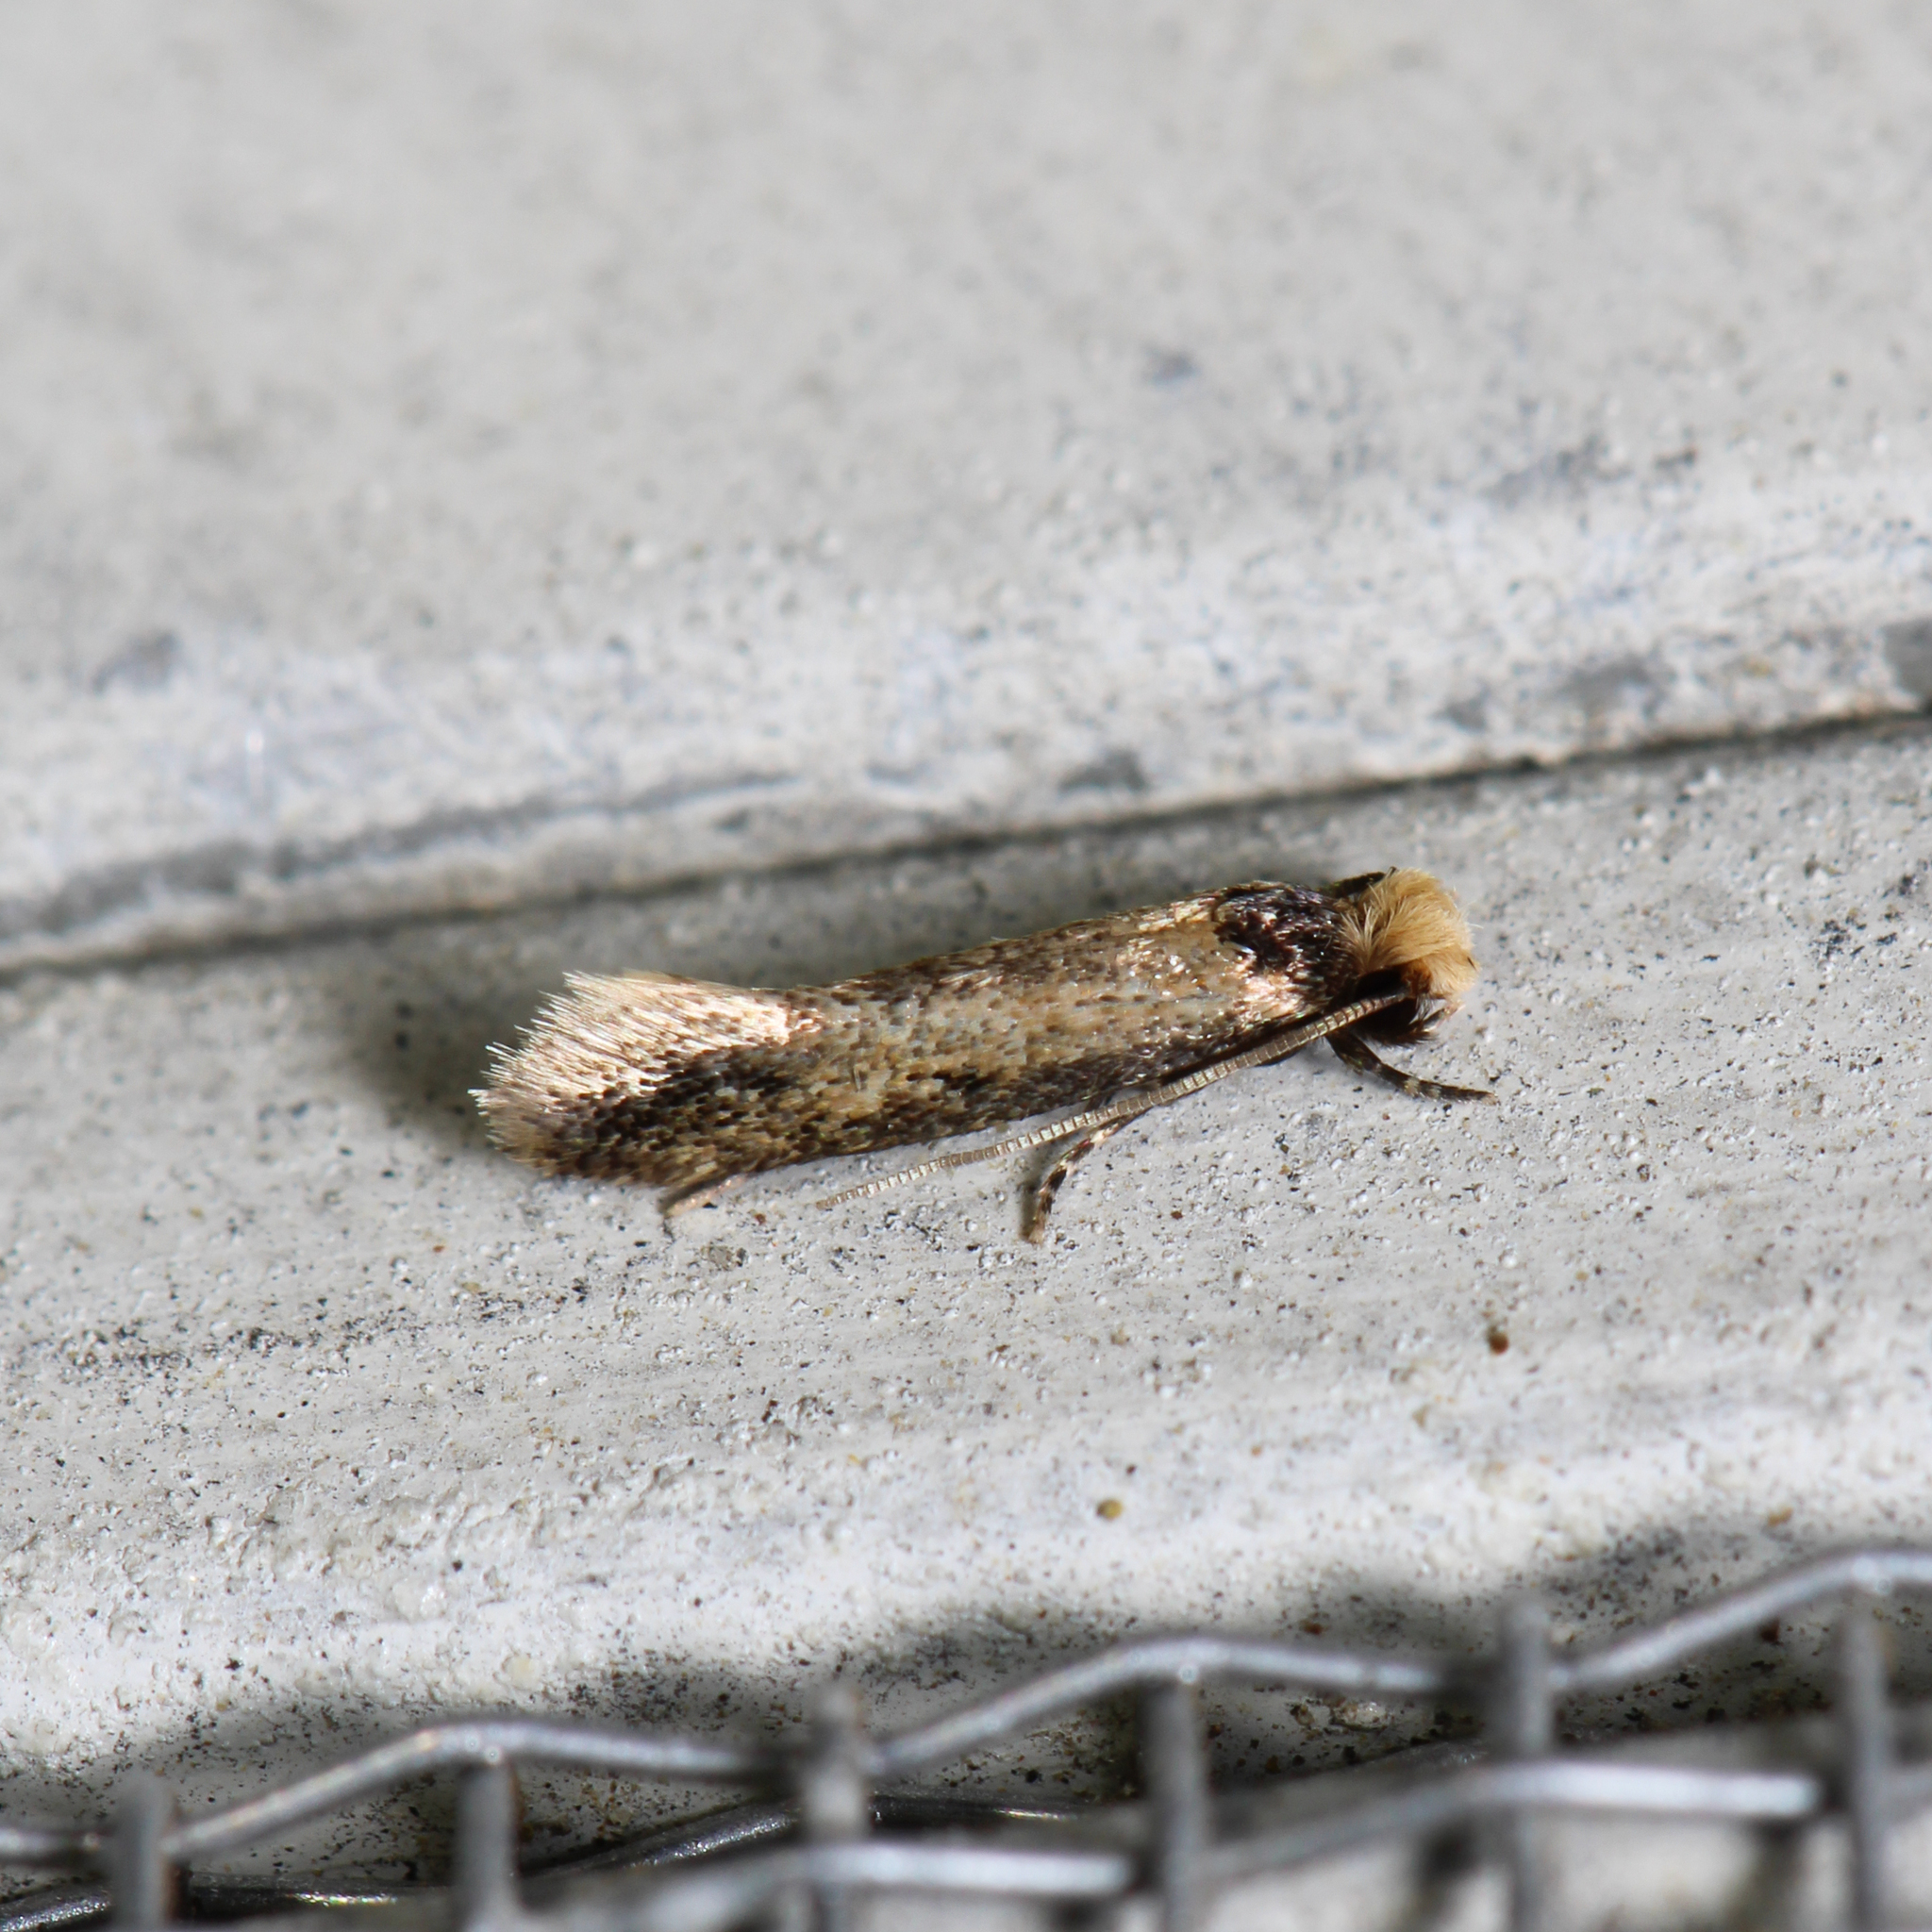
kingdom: Animalia
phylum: Arthropoda
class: Insecta
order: Lepidoptera
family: Meessiidae
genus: Homostinea
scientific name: Homostinea curviliniella
